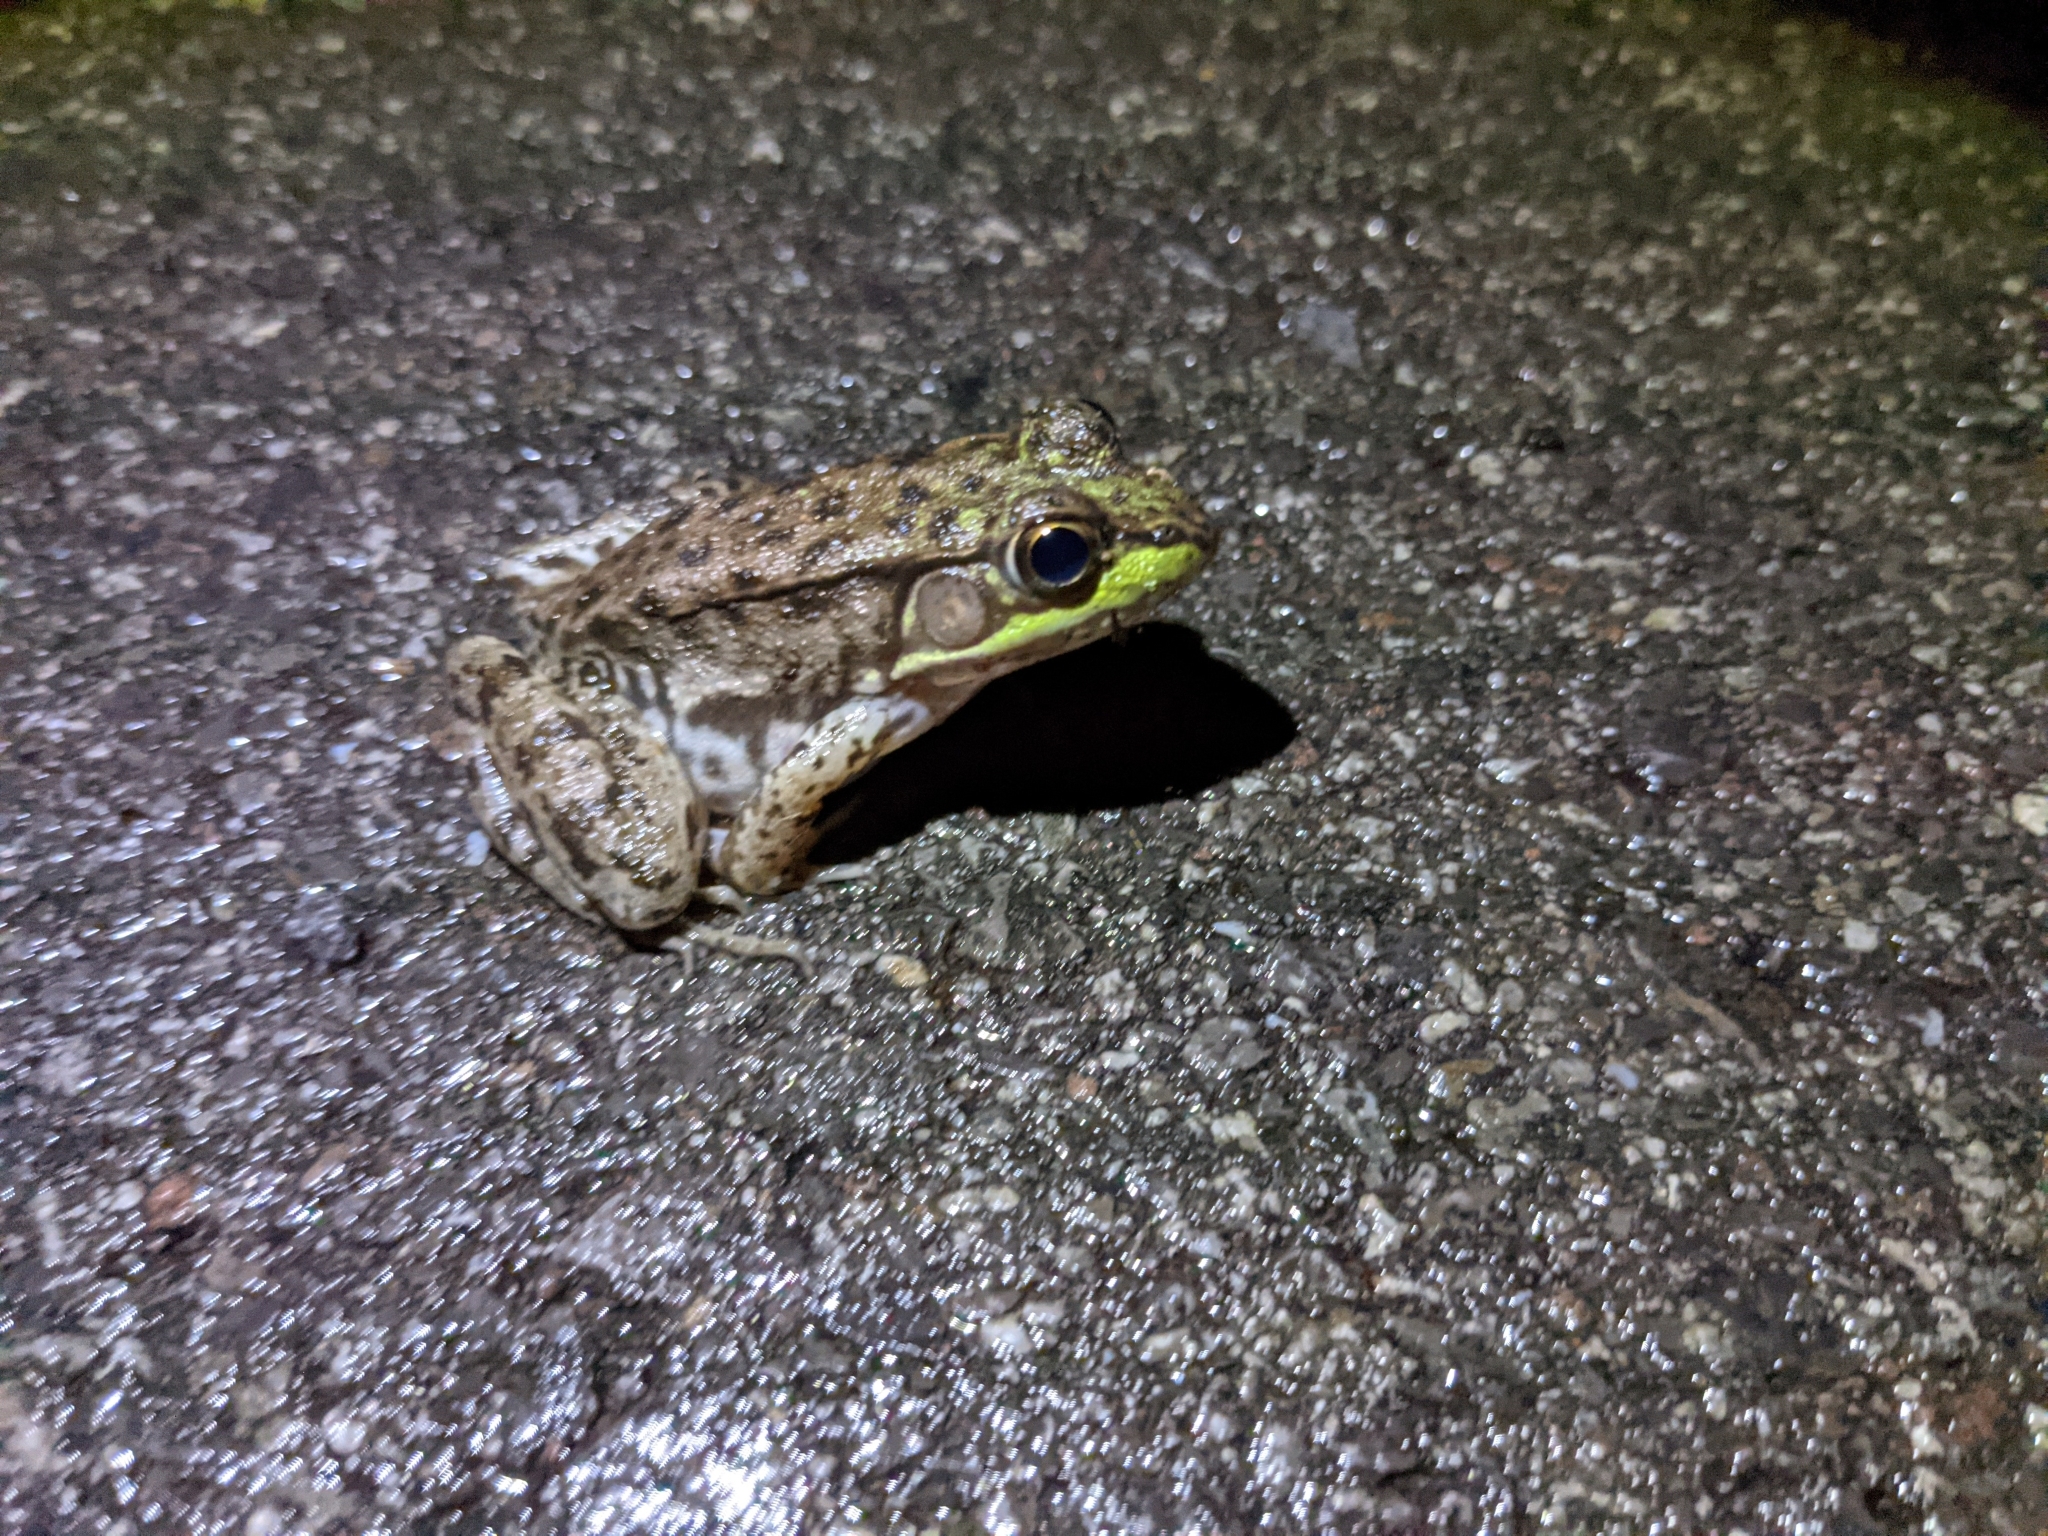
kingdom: Animalia
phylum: Chordata
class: Amphibia
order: Anura
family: Ranidae
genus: Lithobates
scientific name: Lithobates clamitans
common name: Green frog
